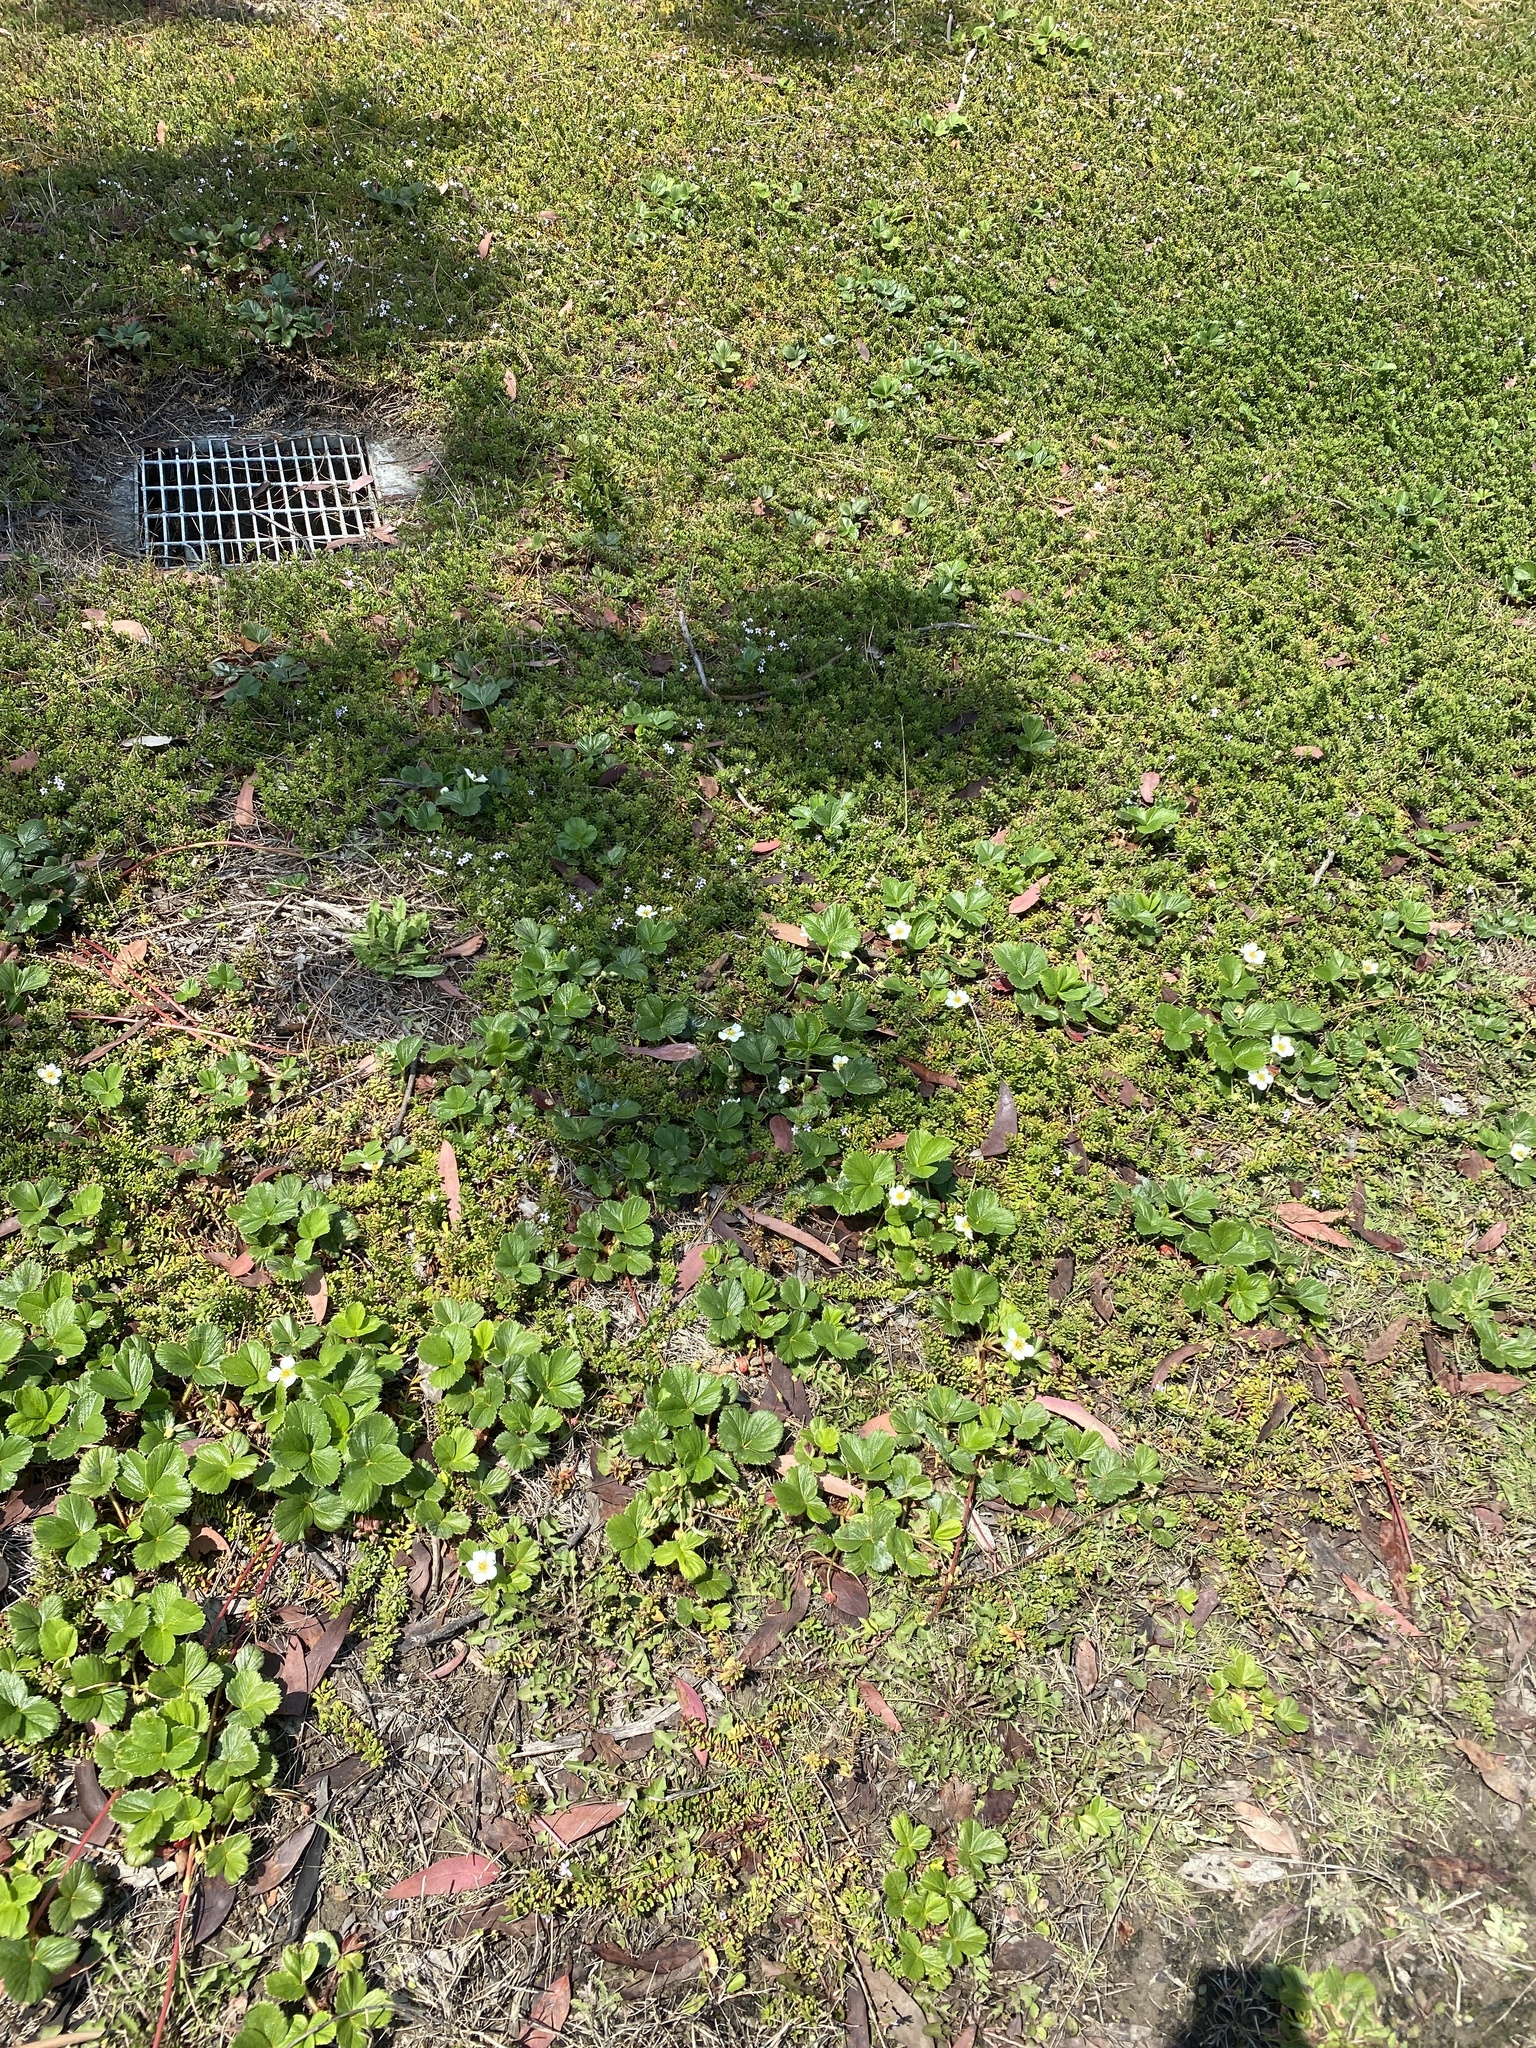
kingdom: Plantae
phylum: Tracheophyta
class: Magnoliopsida
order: Rosales
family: Rosaceae
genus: Fragaria
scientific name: Fragaria chiloensis
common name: Beach strawberry
